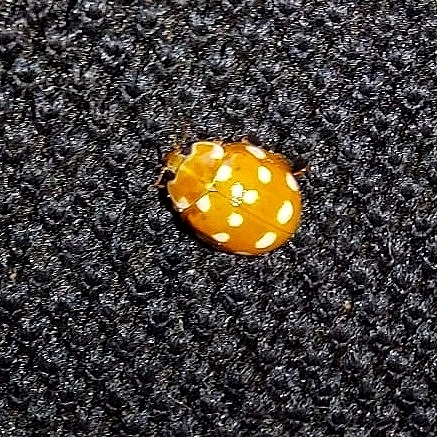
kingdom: Animalia
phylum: Arthropoda
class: Insecta
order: Coleoptera
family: Coccinellidae
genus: Calvia
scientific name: Calvia quatuordecimguttata
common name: Cream-spot ladybird
